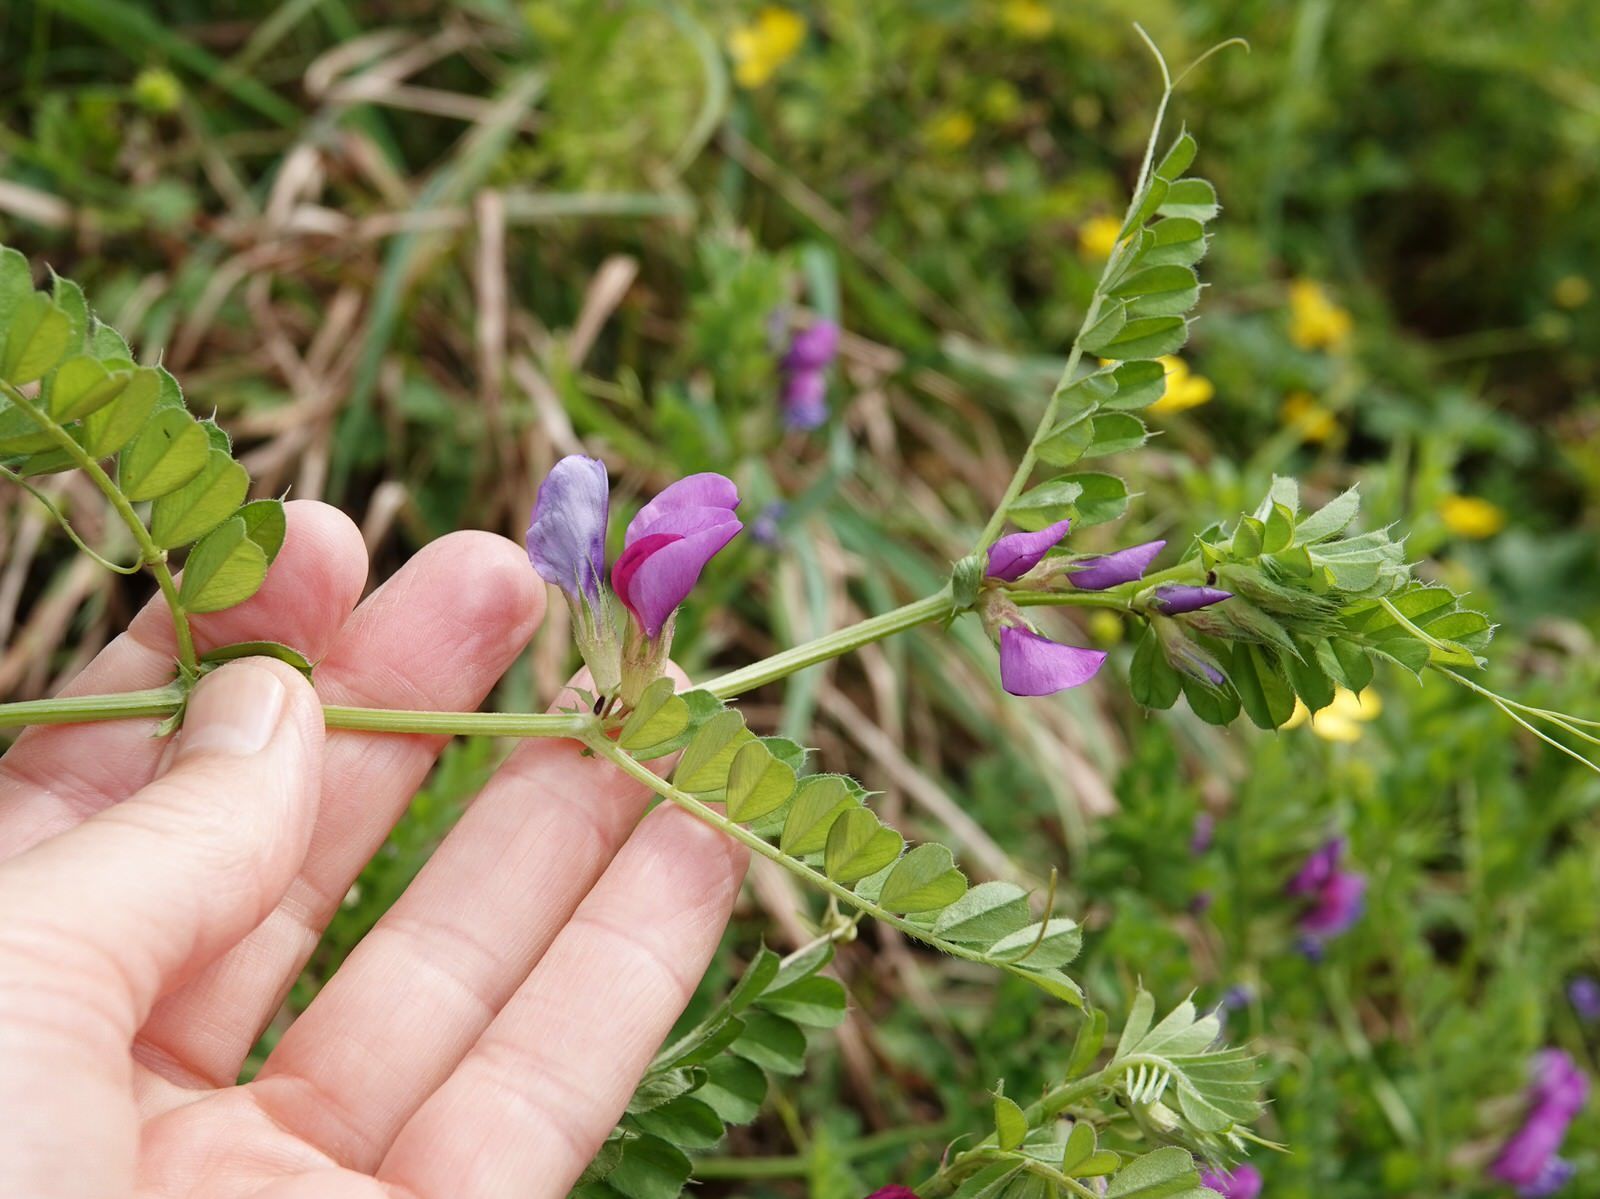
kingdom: Plantae
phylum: Tracheophyta
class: Magnoliopsida
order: Fabales
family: Fabaceae
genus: Vicia
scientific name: Vicia sativa
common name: Garden vetch
